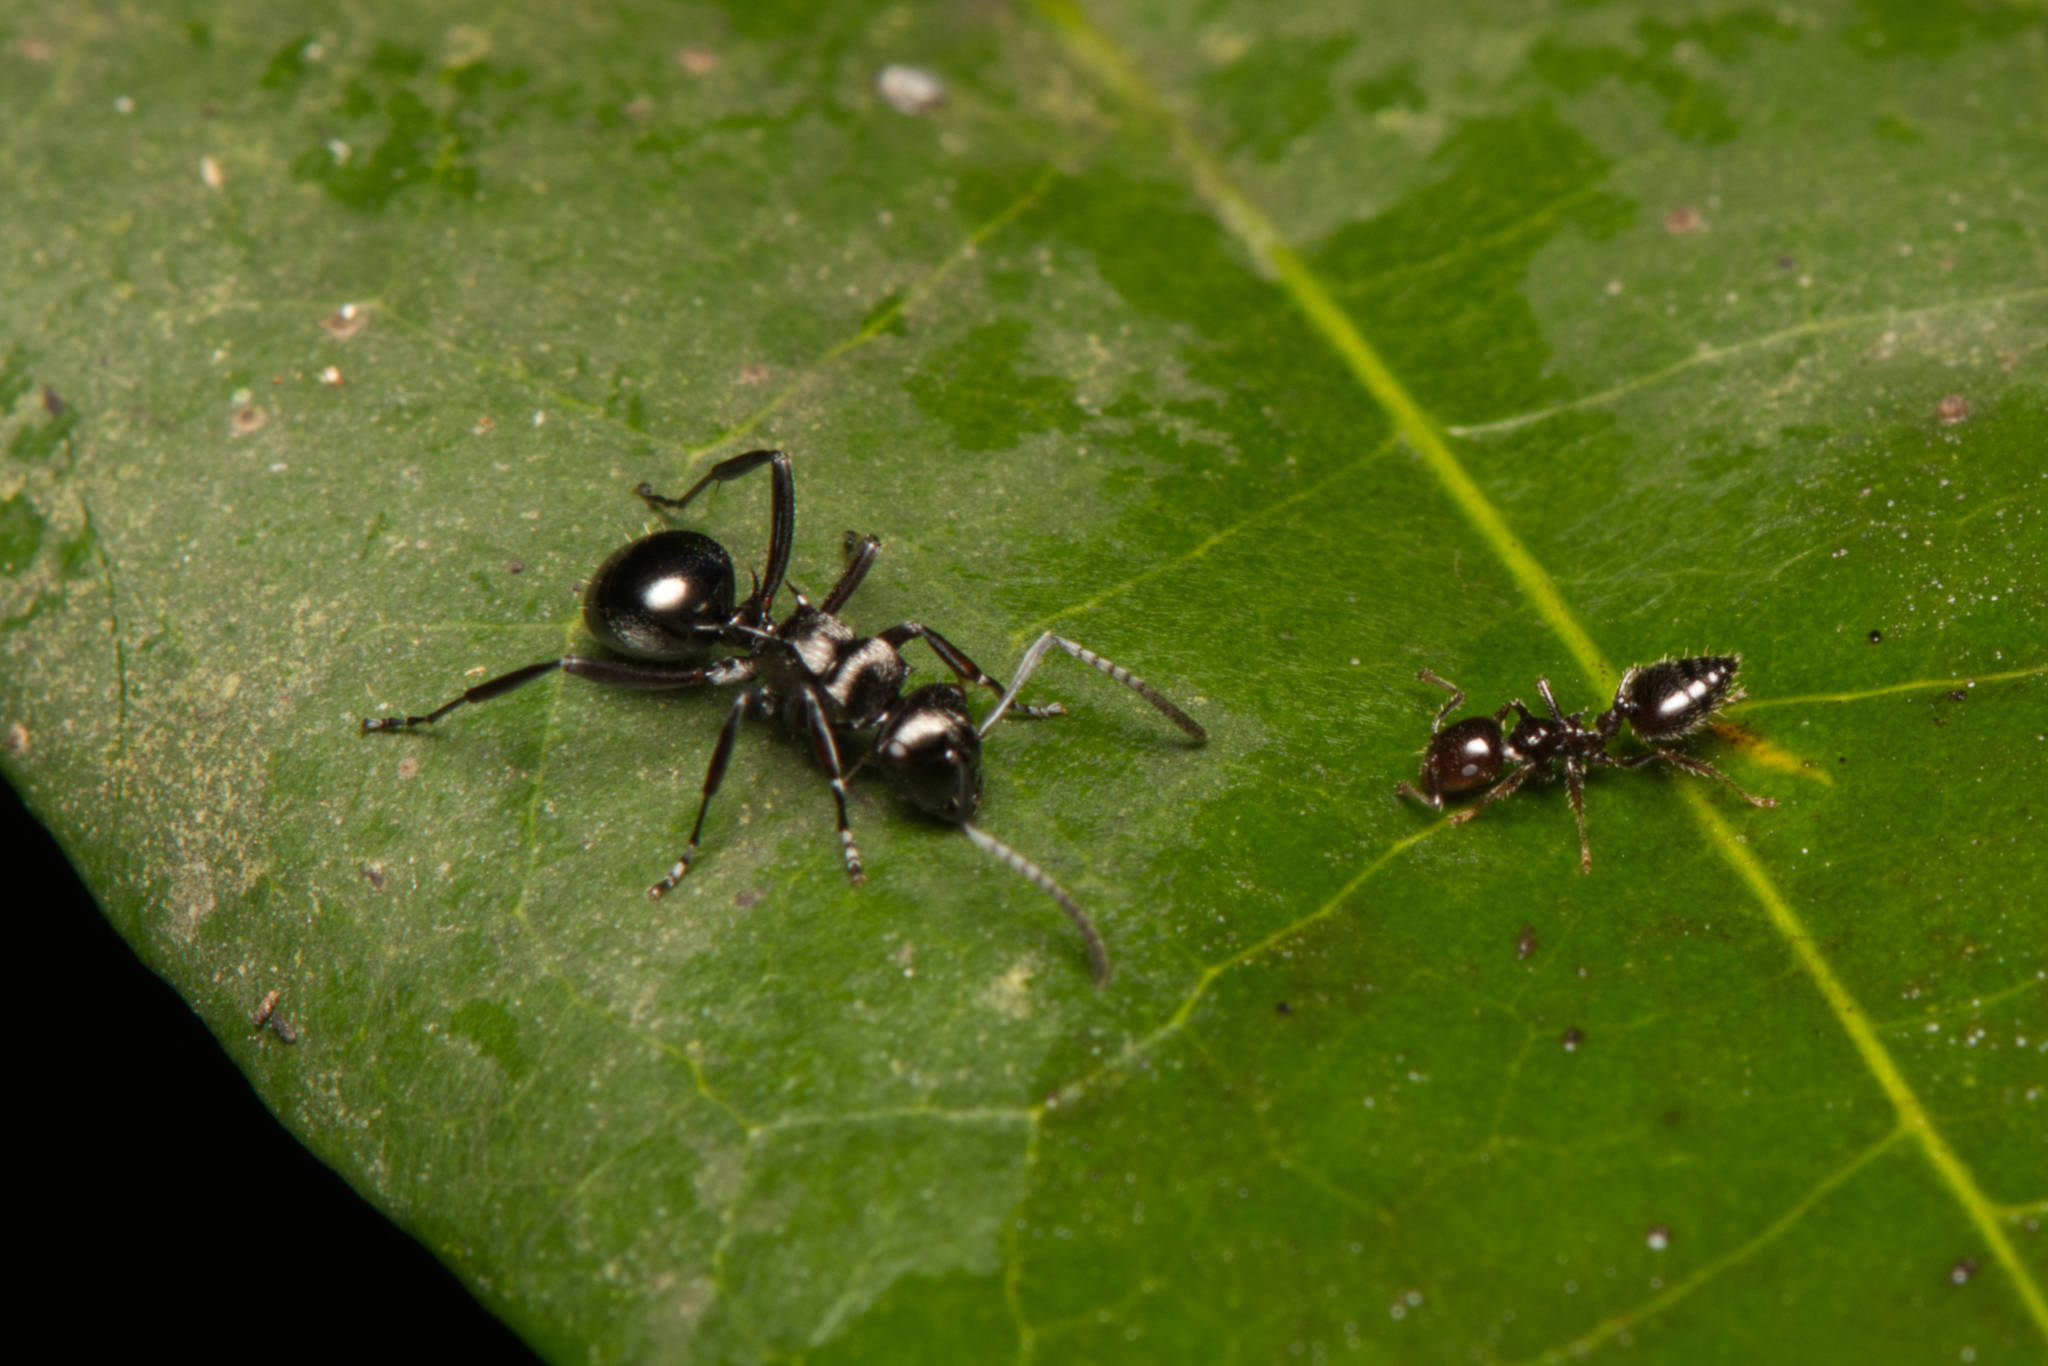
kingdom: Animalia
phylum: Arthropoda
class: Insecta
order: Hymenoptera
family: Formicidae
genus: Polyrhachis
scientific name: Polyrhachis clio
